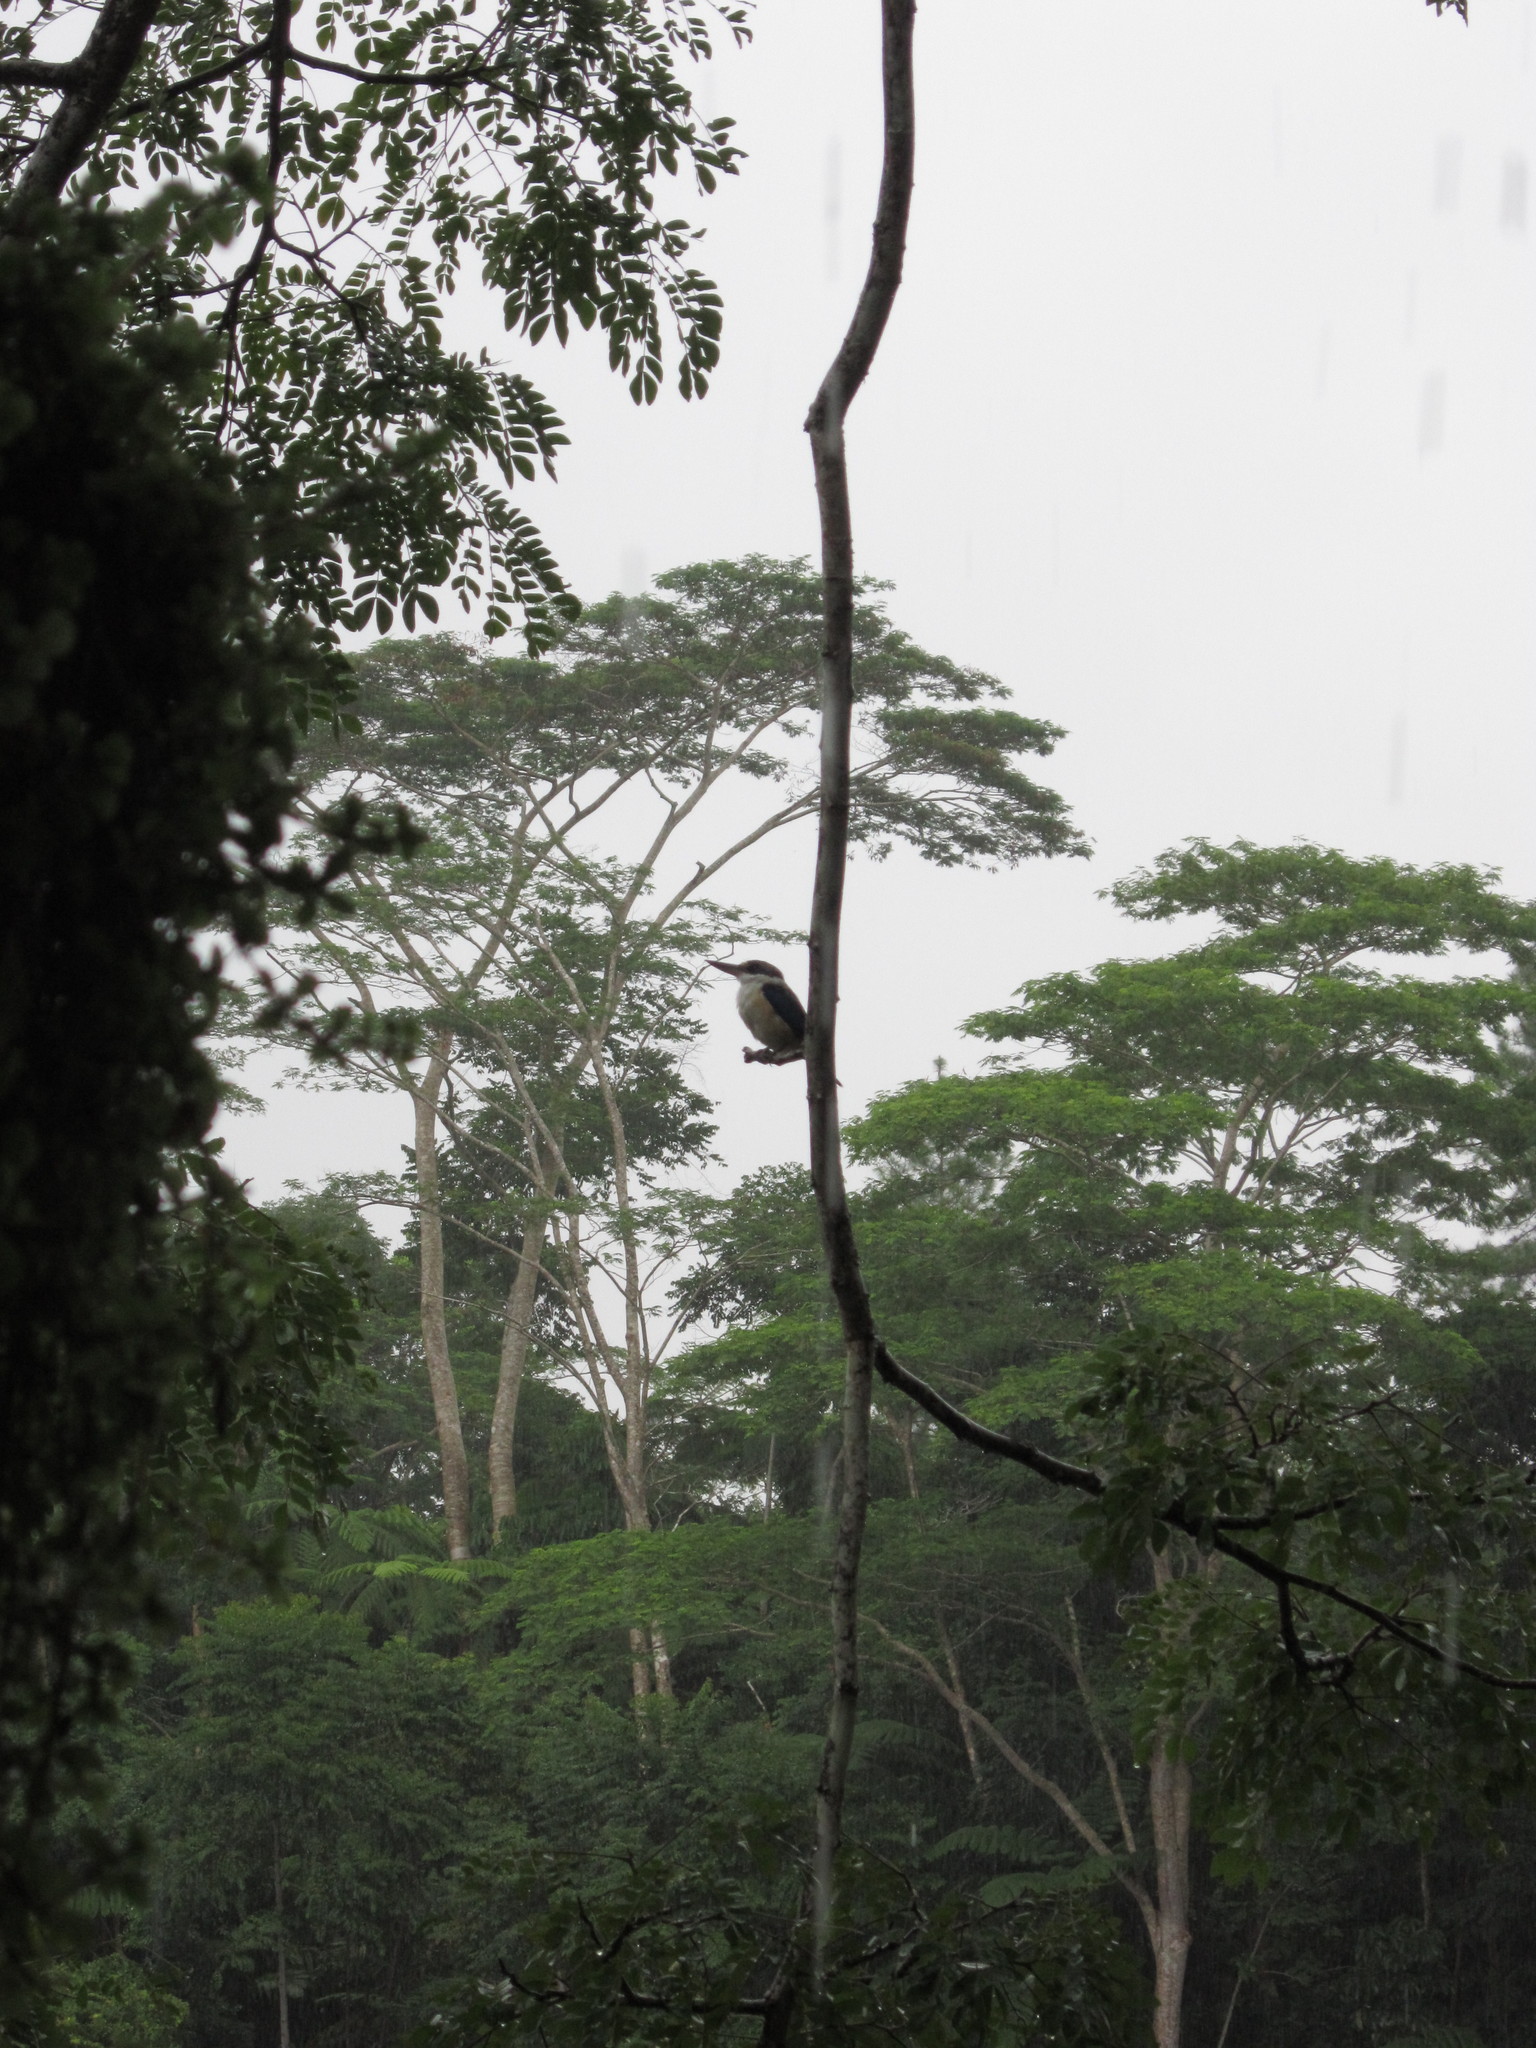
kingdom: Animalia
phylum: Chordata
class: Aves
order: Coraciiformes
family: Alcedinidae
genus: Todiramphus
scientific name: Todiramphus sacer
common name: Pacific kingfisher
